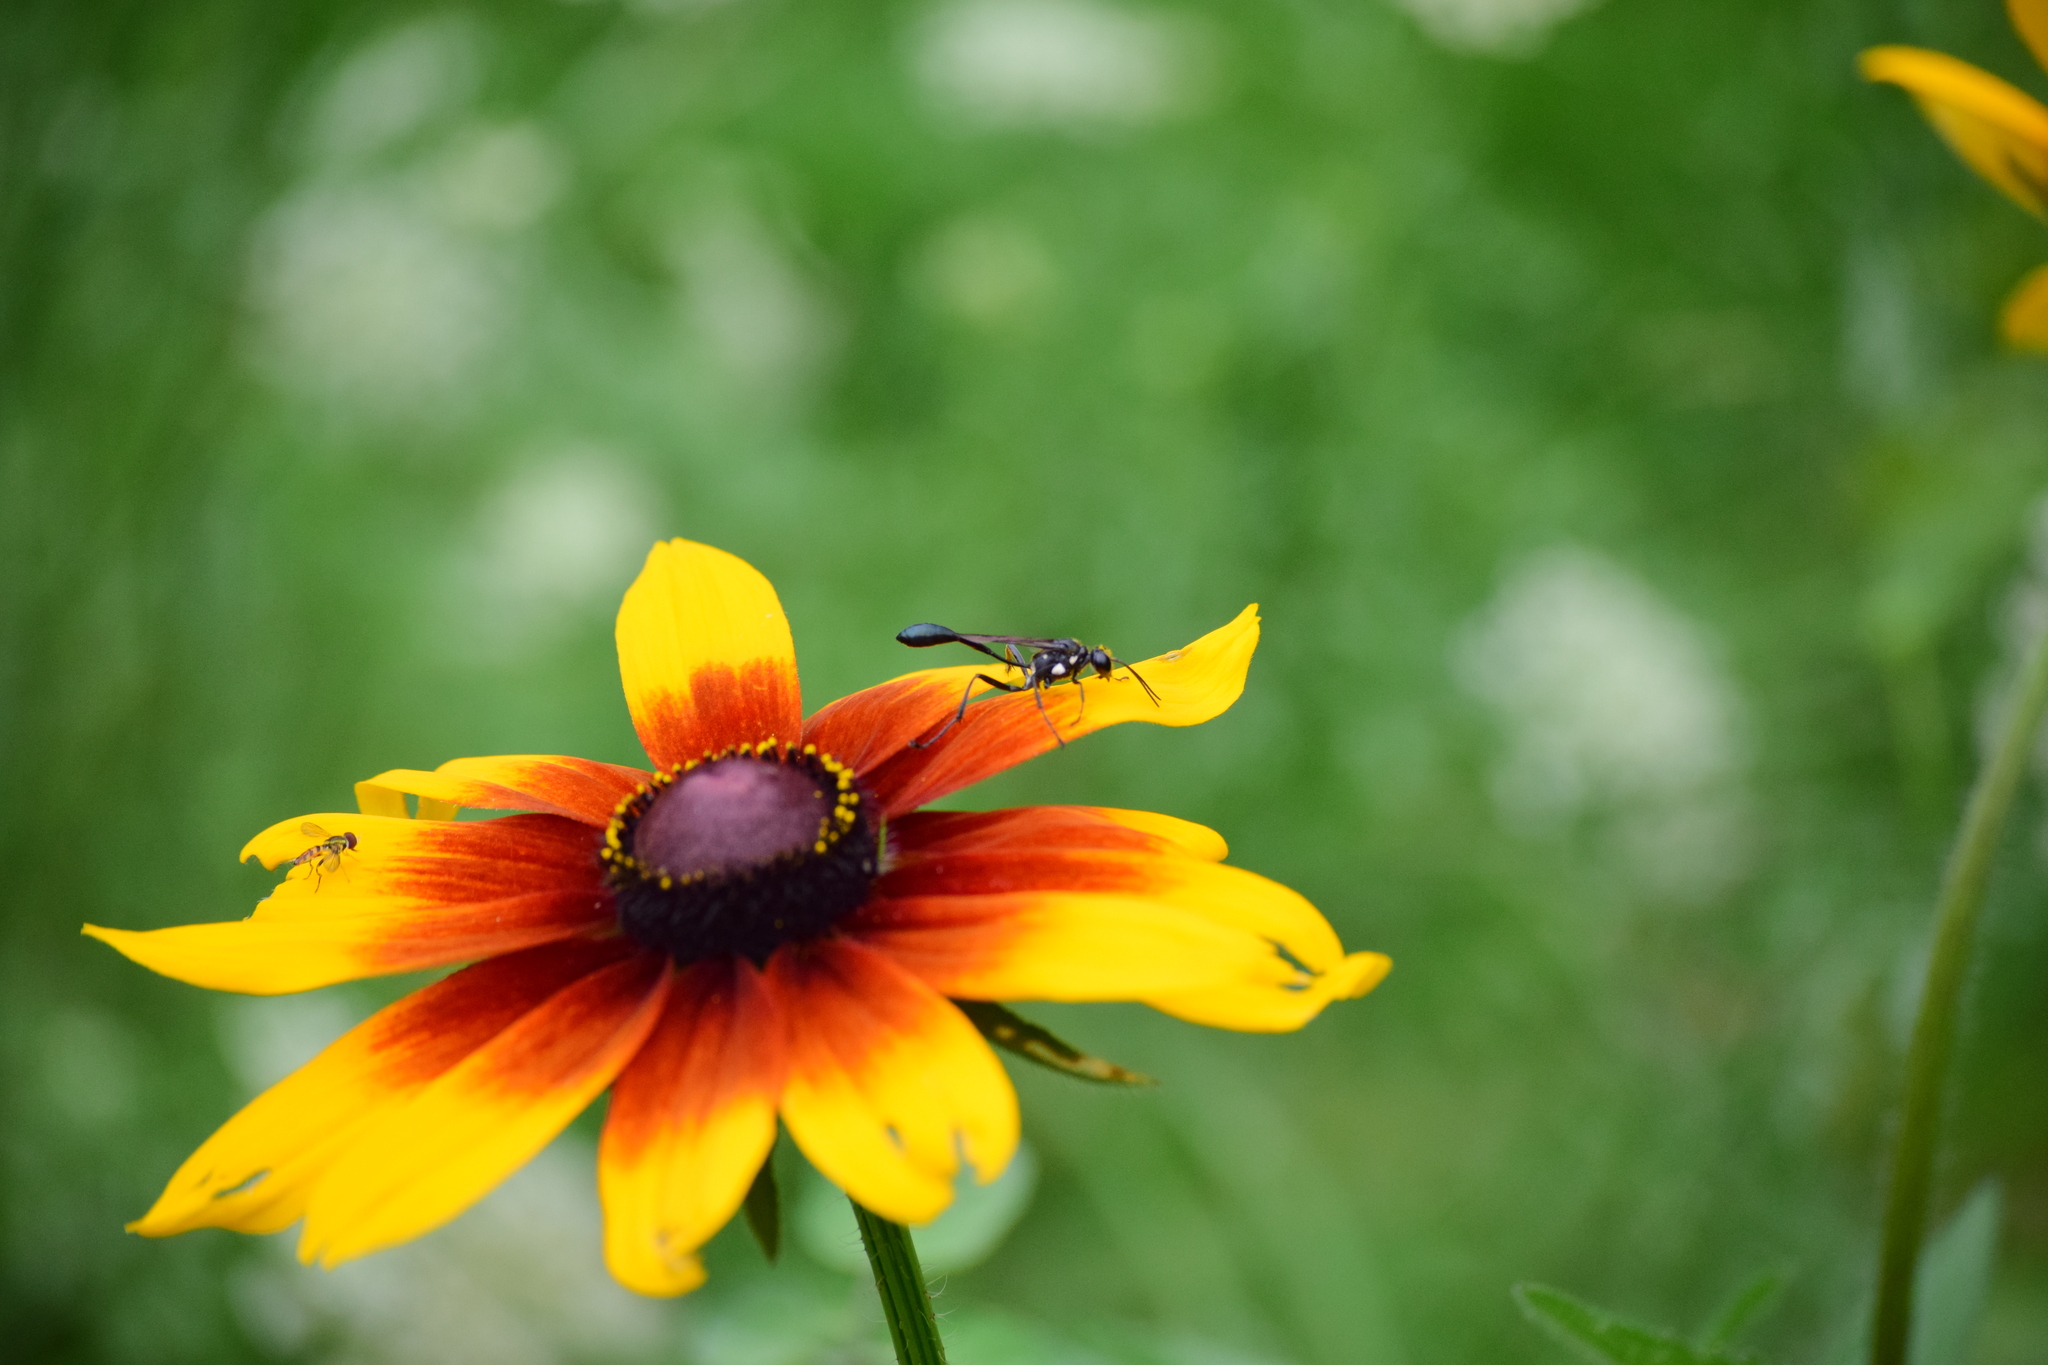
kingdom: Animalia
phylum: Arthropoda
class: Insecta
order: Hymenoptera
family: Sphecidae
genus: Eremnophila
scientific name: Eremnophila aureonotata
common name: Gold-marked thread-waisted wasp
